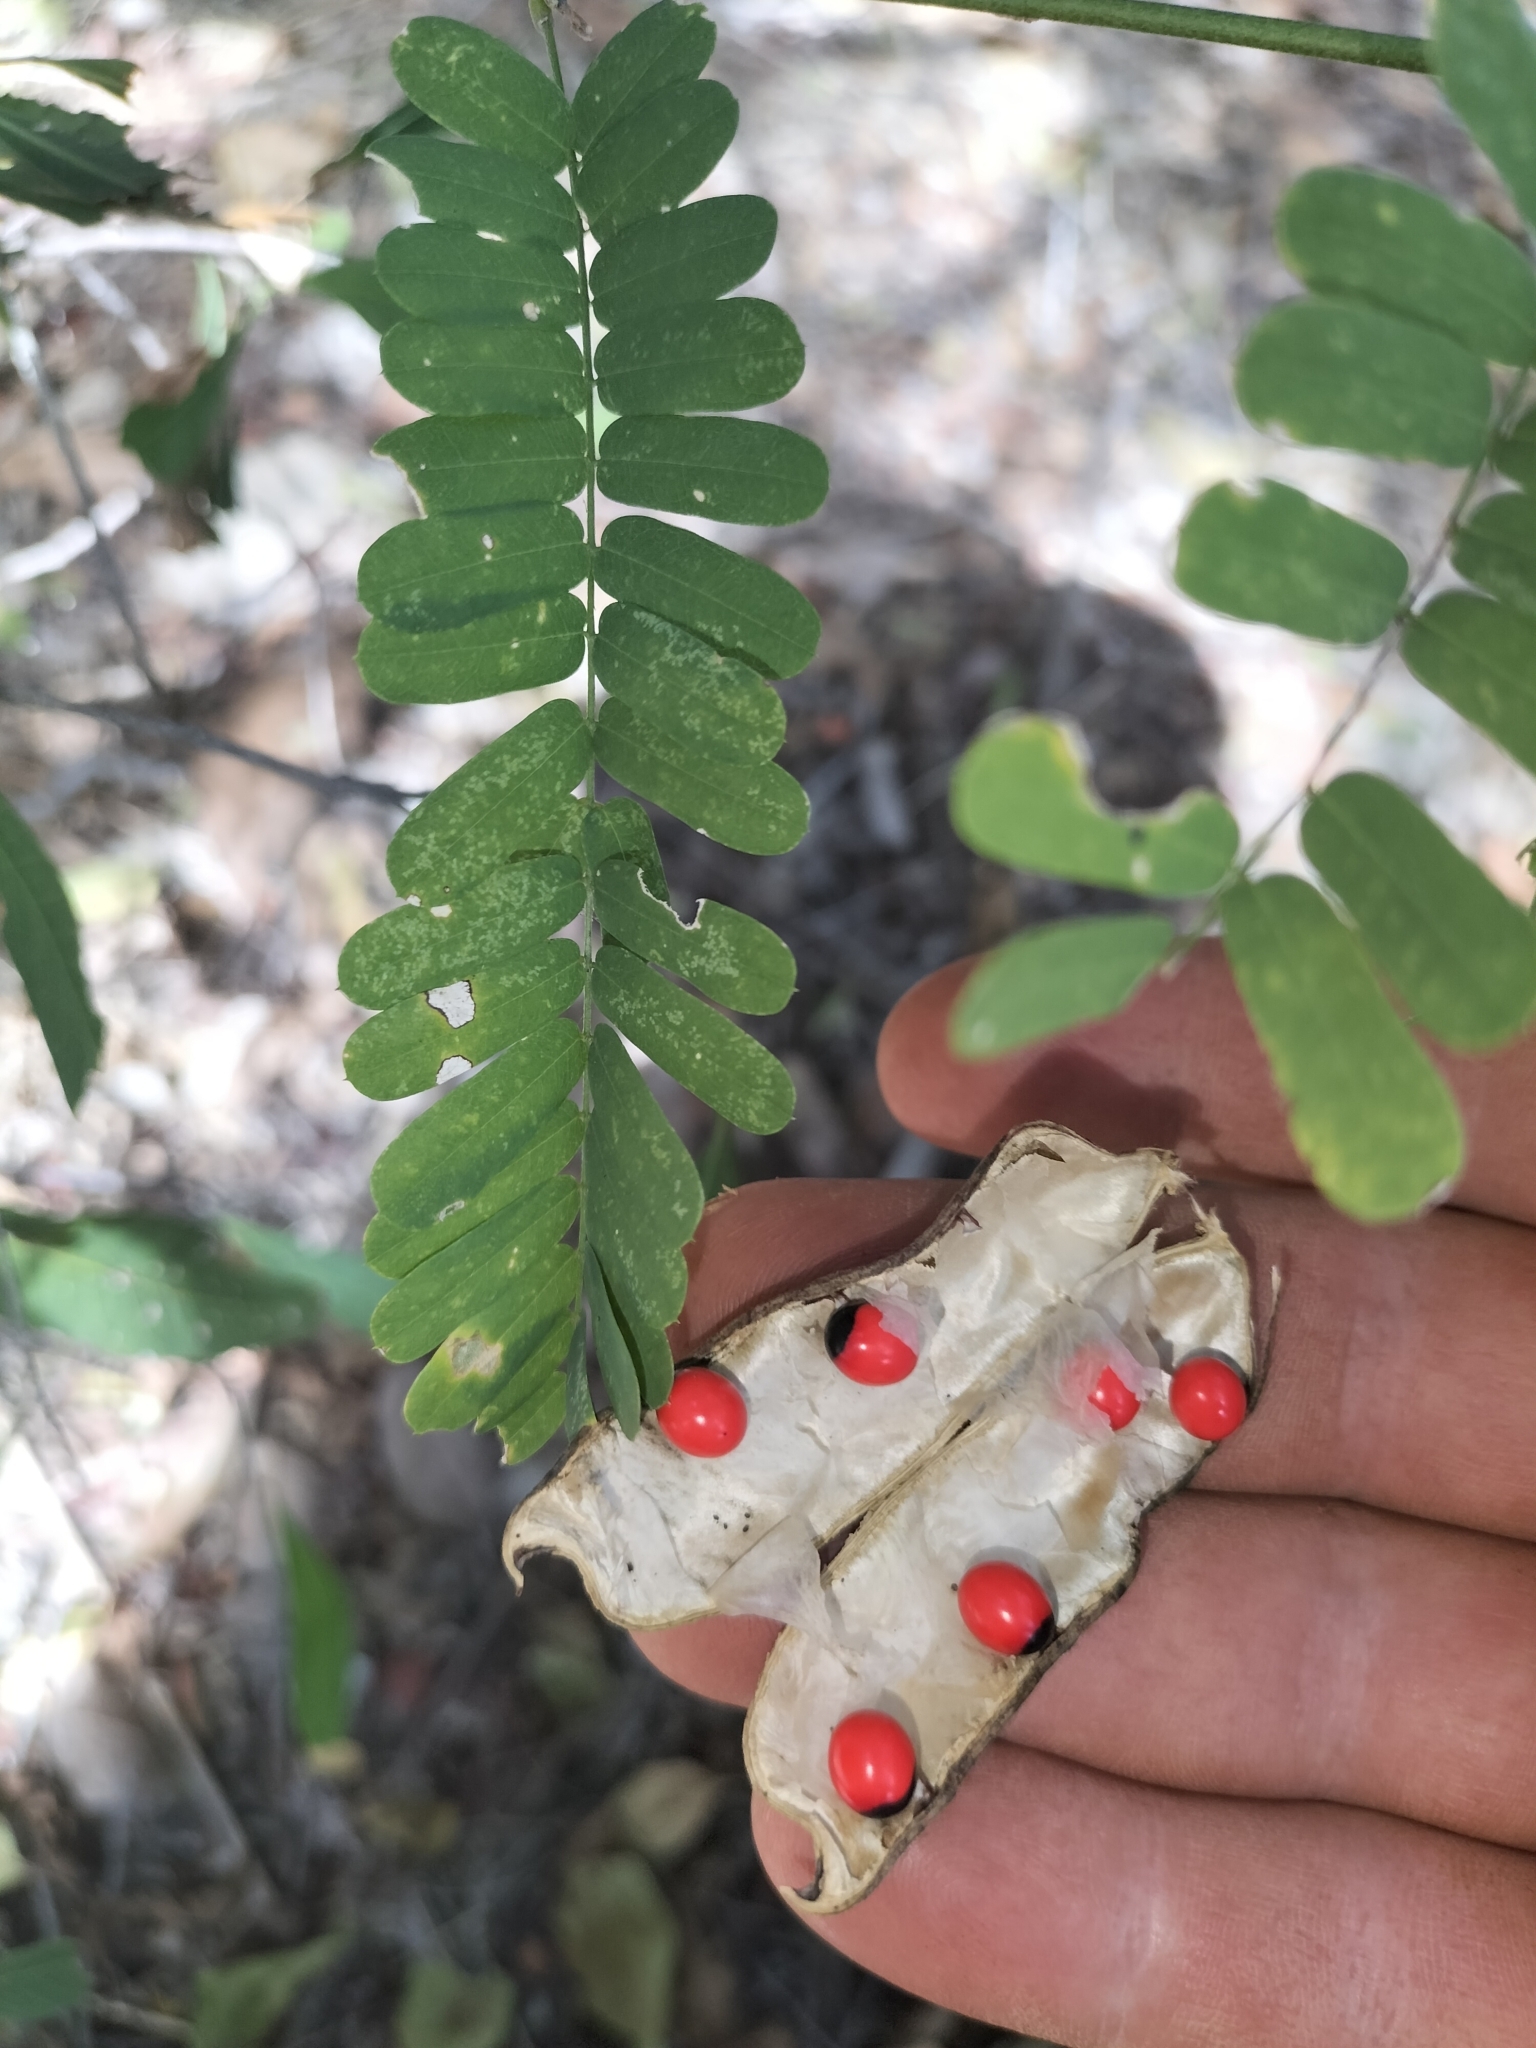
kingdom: Plantae
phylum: Tracheophyta
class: Magnoliopsida
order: Fabales
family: Fabaceae
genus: Abrus
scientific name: Abrus precatorius
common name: Rosarypea
